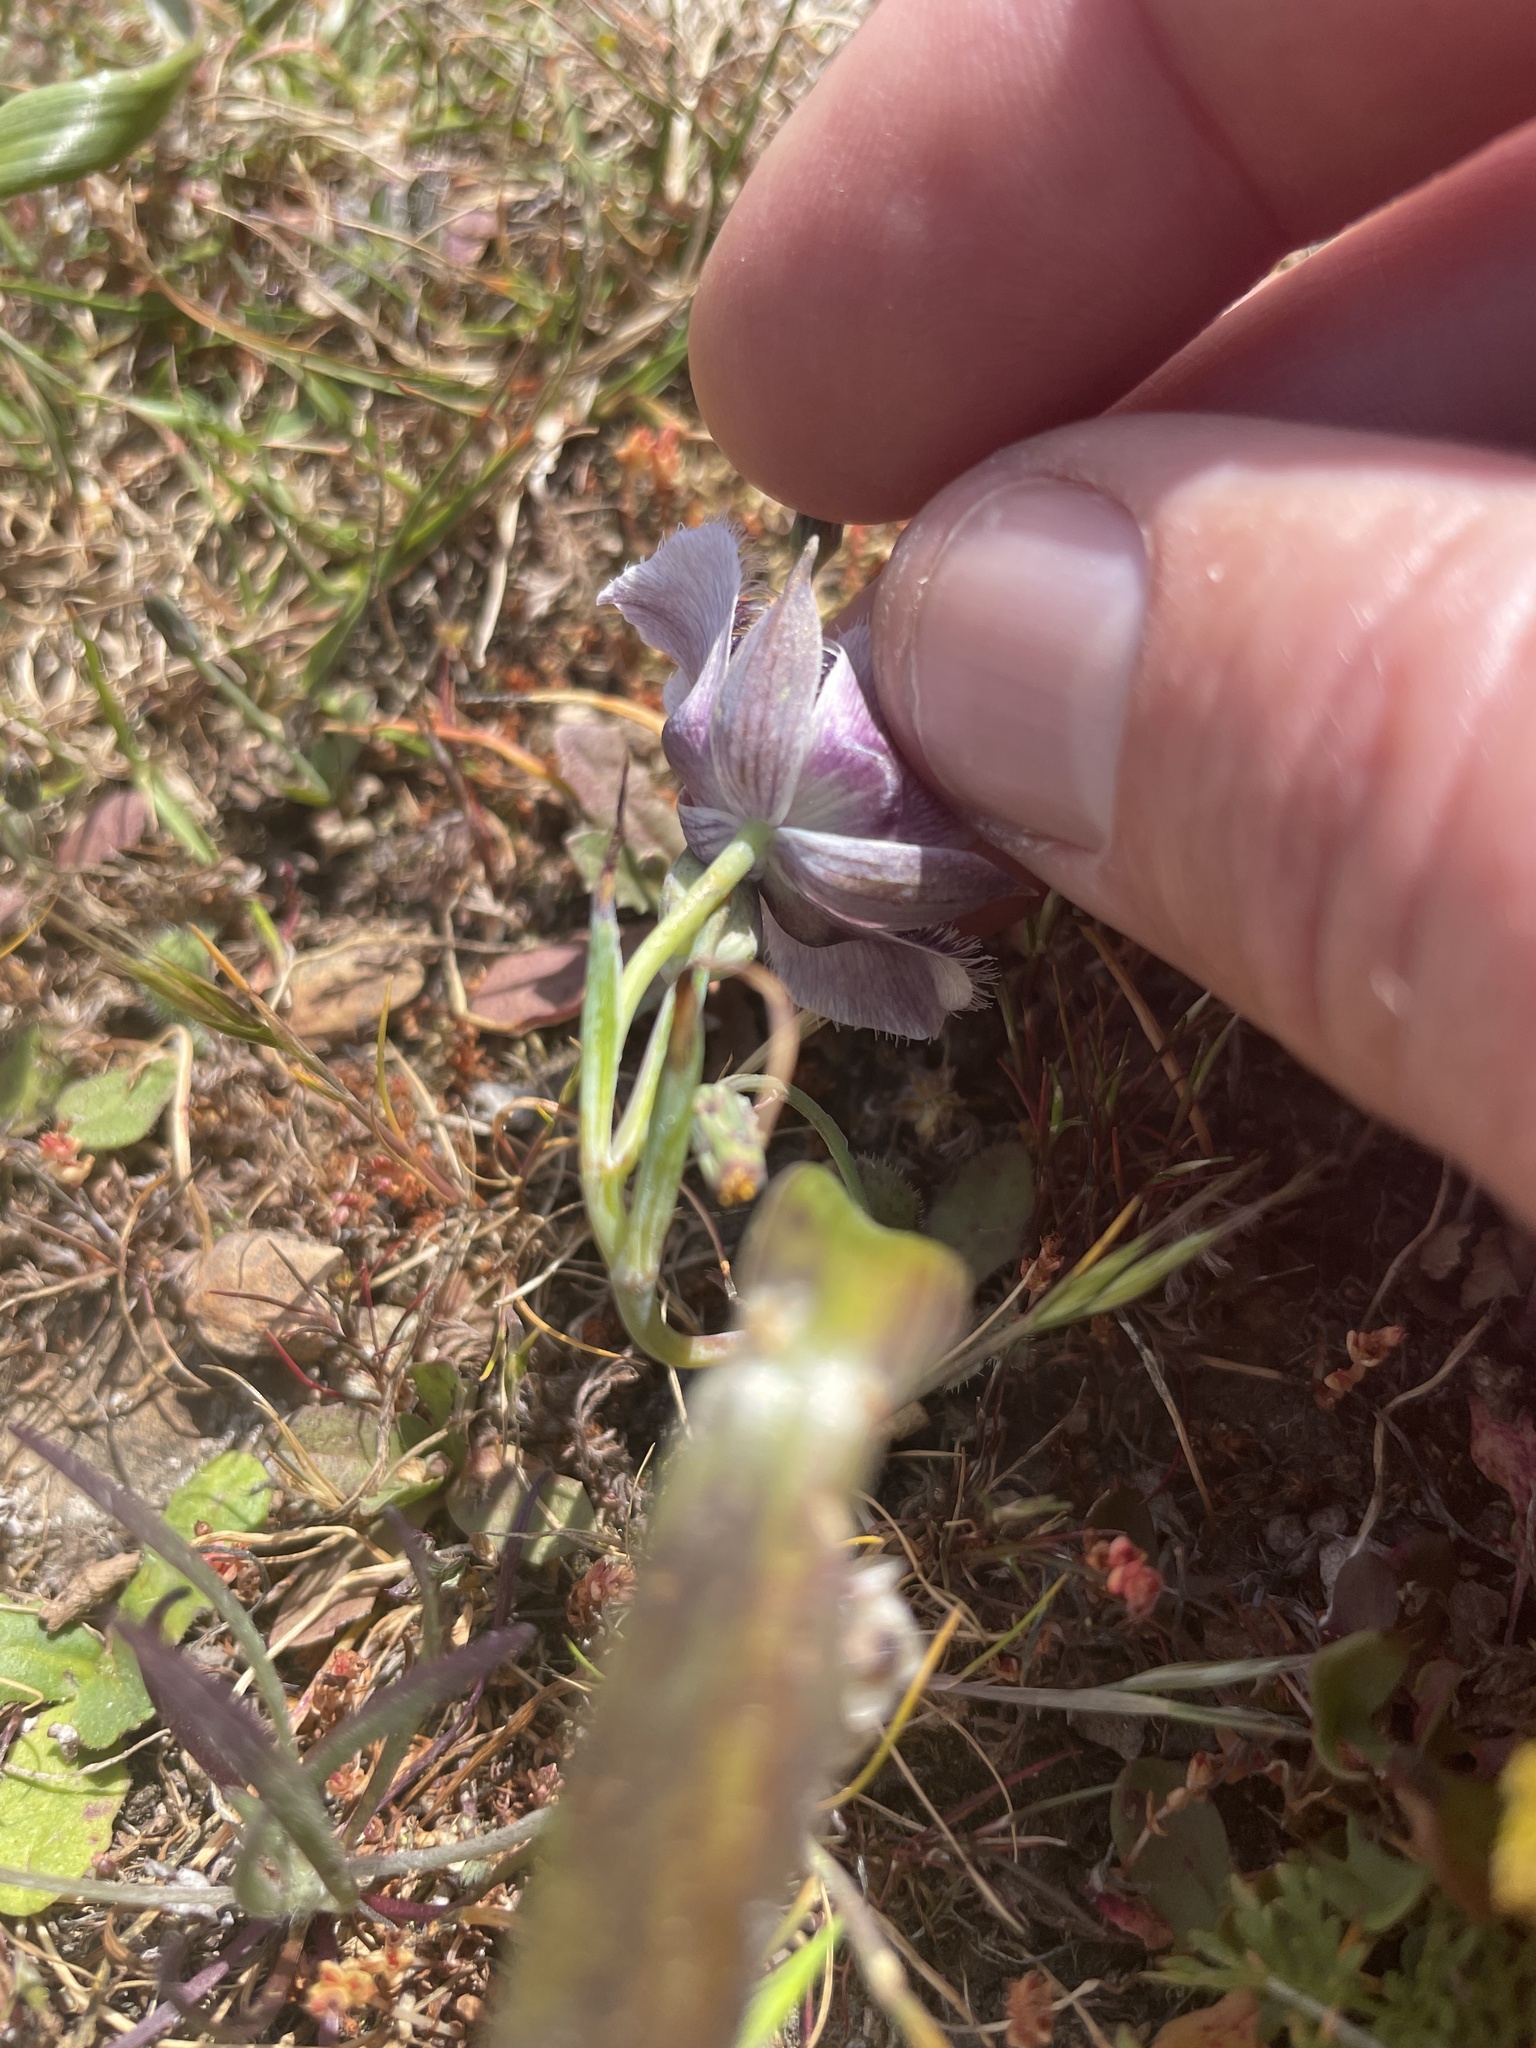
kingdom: Plantae
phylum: Tracheophyta
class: Liliopsida
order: Liliales
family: Liliaceae
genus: Calochortus
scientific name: Calochortus tolmiei
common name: Pussy-ears
